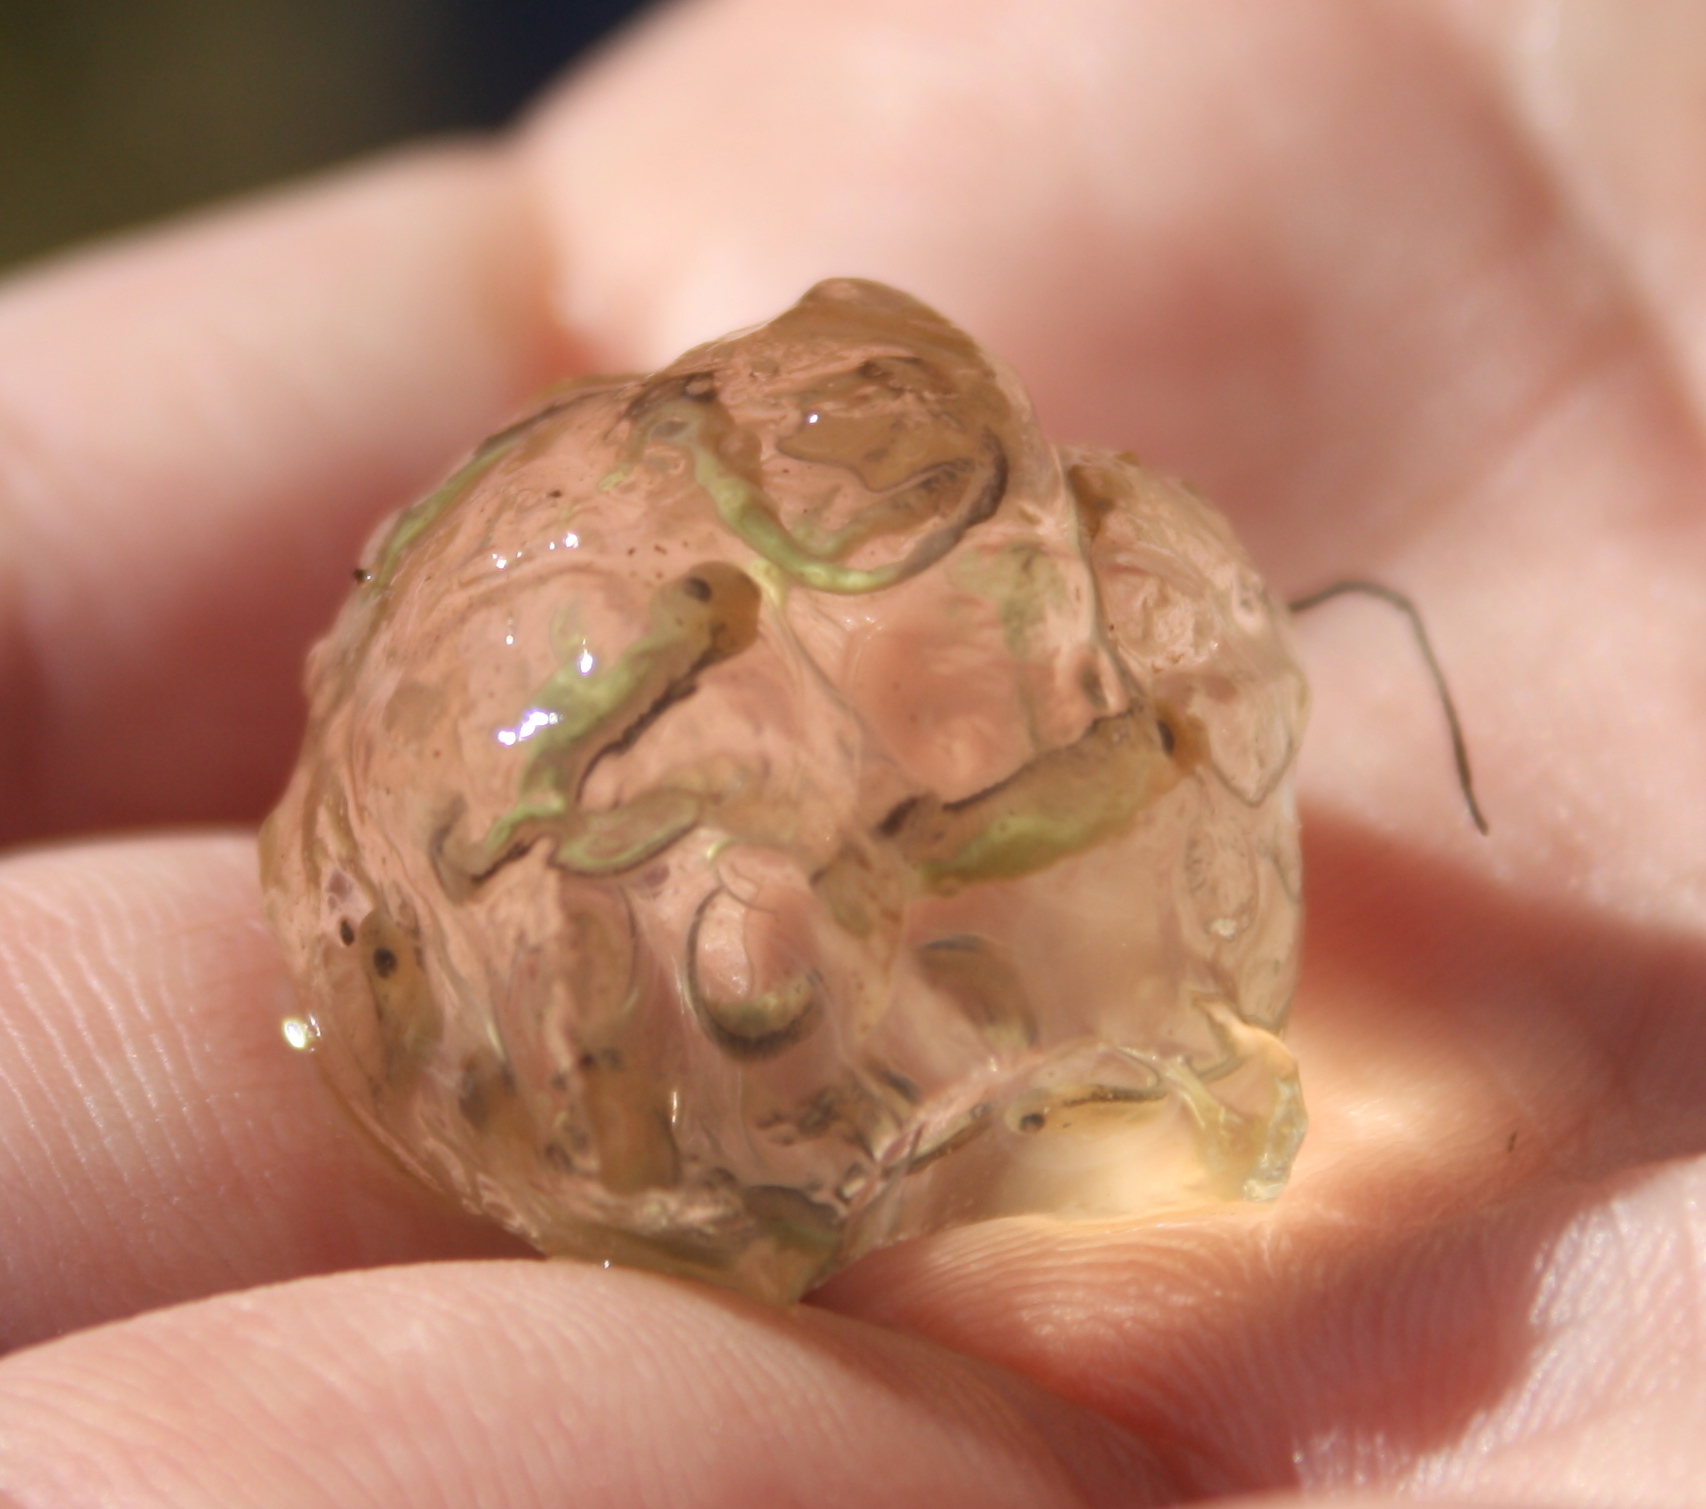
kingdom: Animalia
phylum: Chordata
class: Amphibia
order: Caudata
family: Salamandridae
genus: Taricha
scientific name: Taricha torosa
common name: California newt
